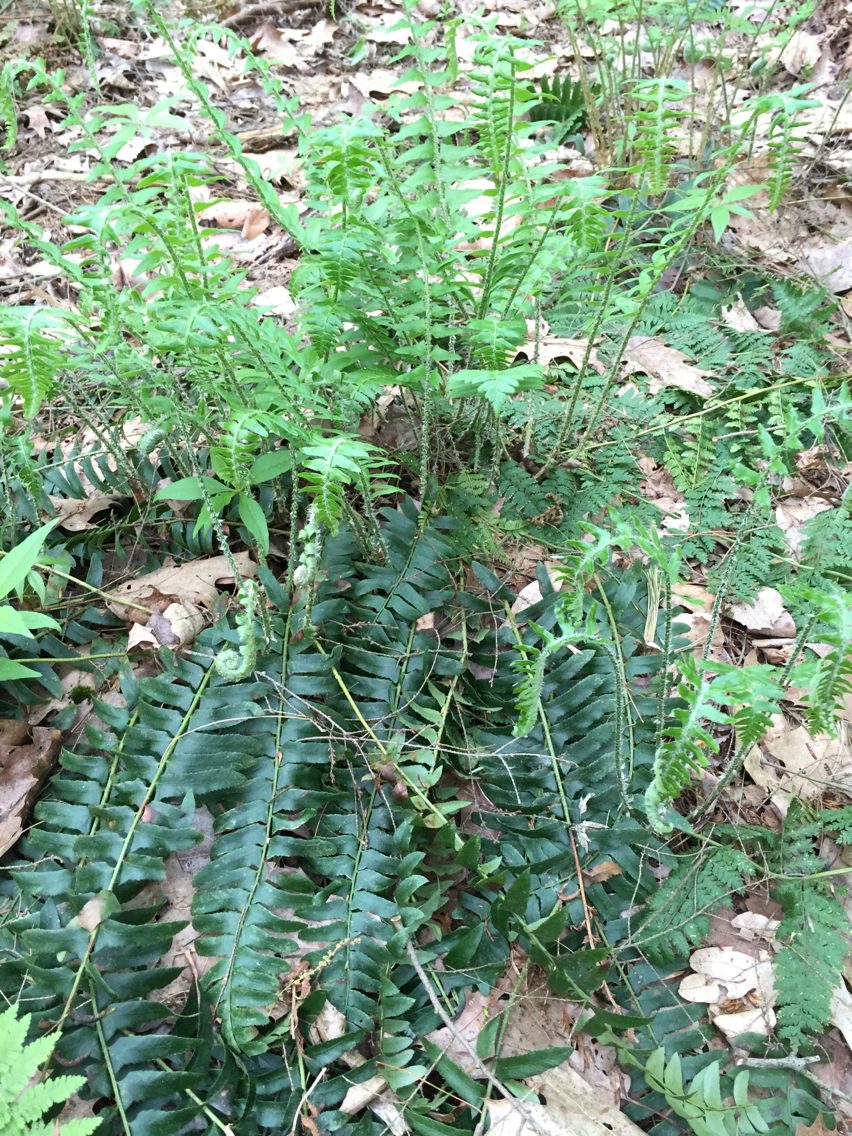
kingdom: Plantae
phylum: Tracheophyta
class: Polypodiopsida
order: Polypodiales
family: Dryopteridaceae
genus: Polystichum
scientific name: Polystichum acrostichoides
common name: Christmas fern
